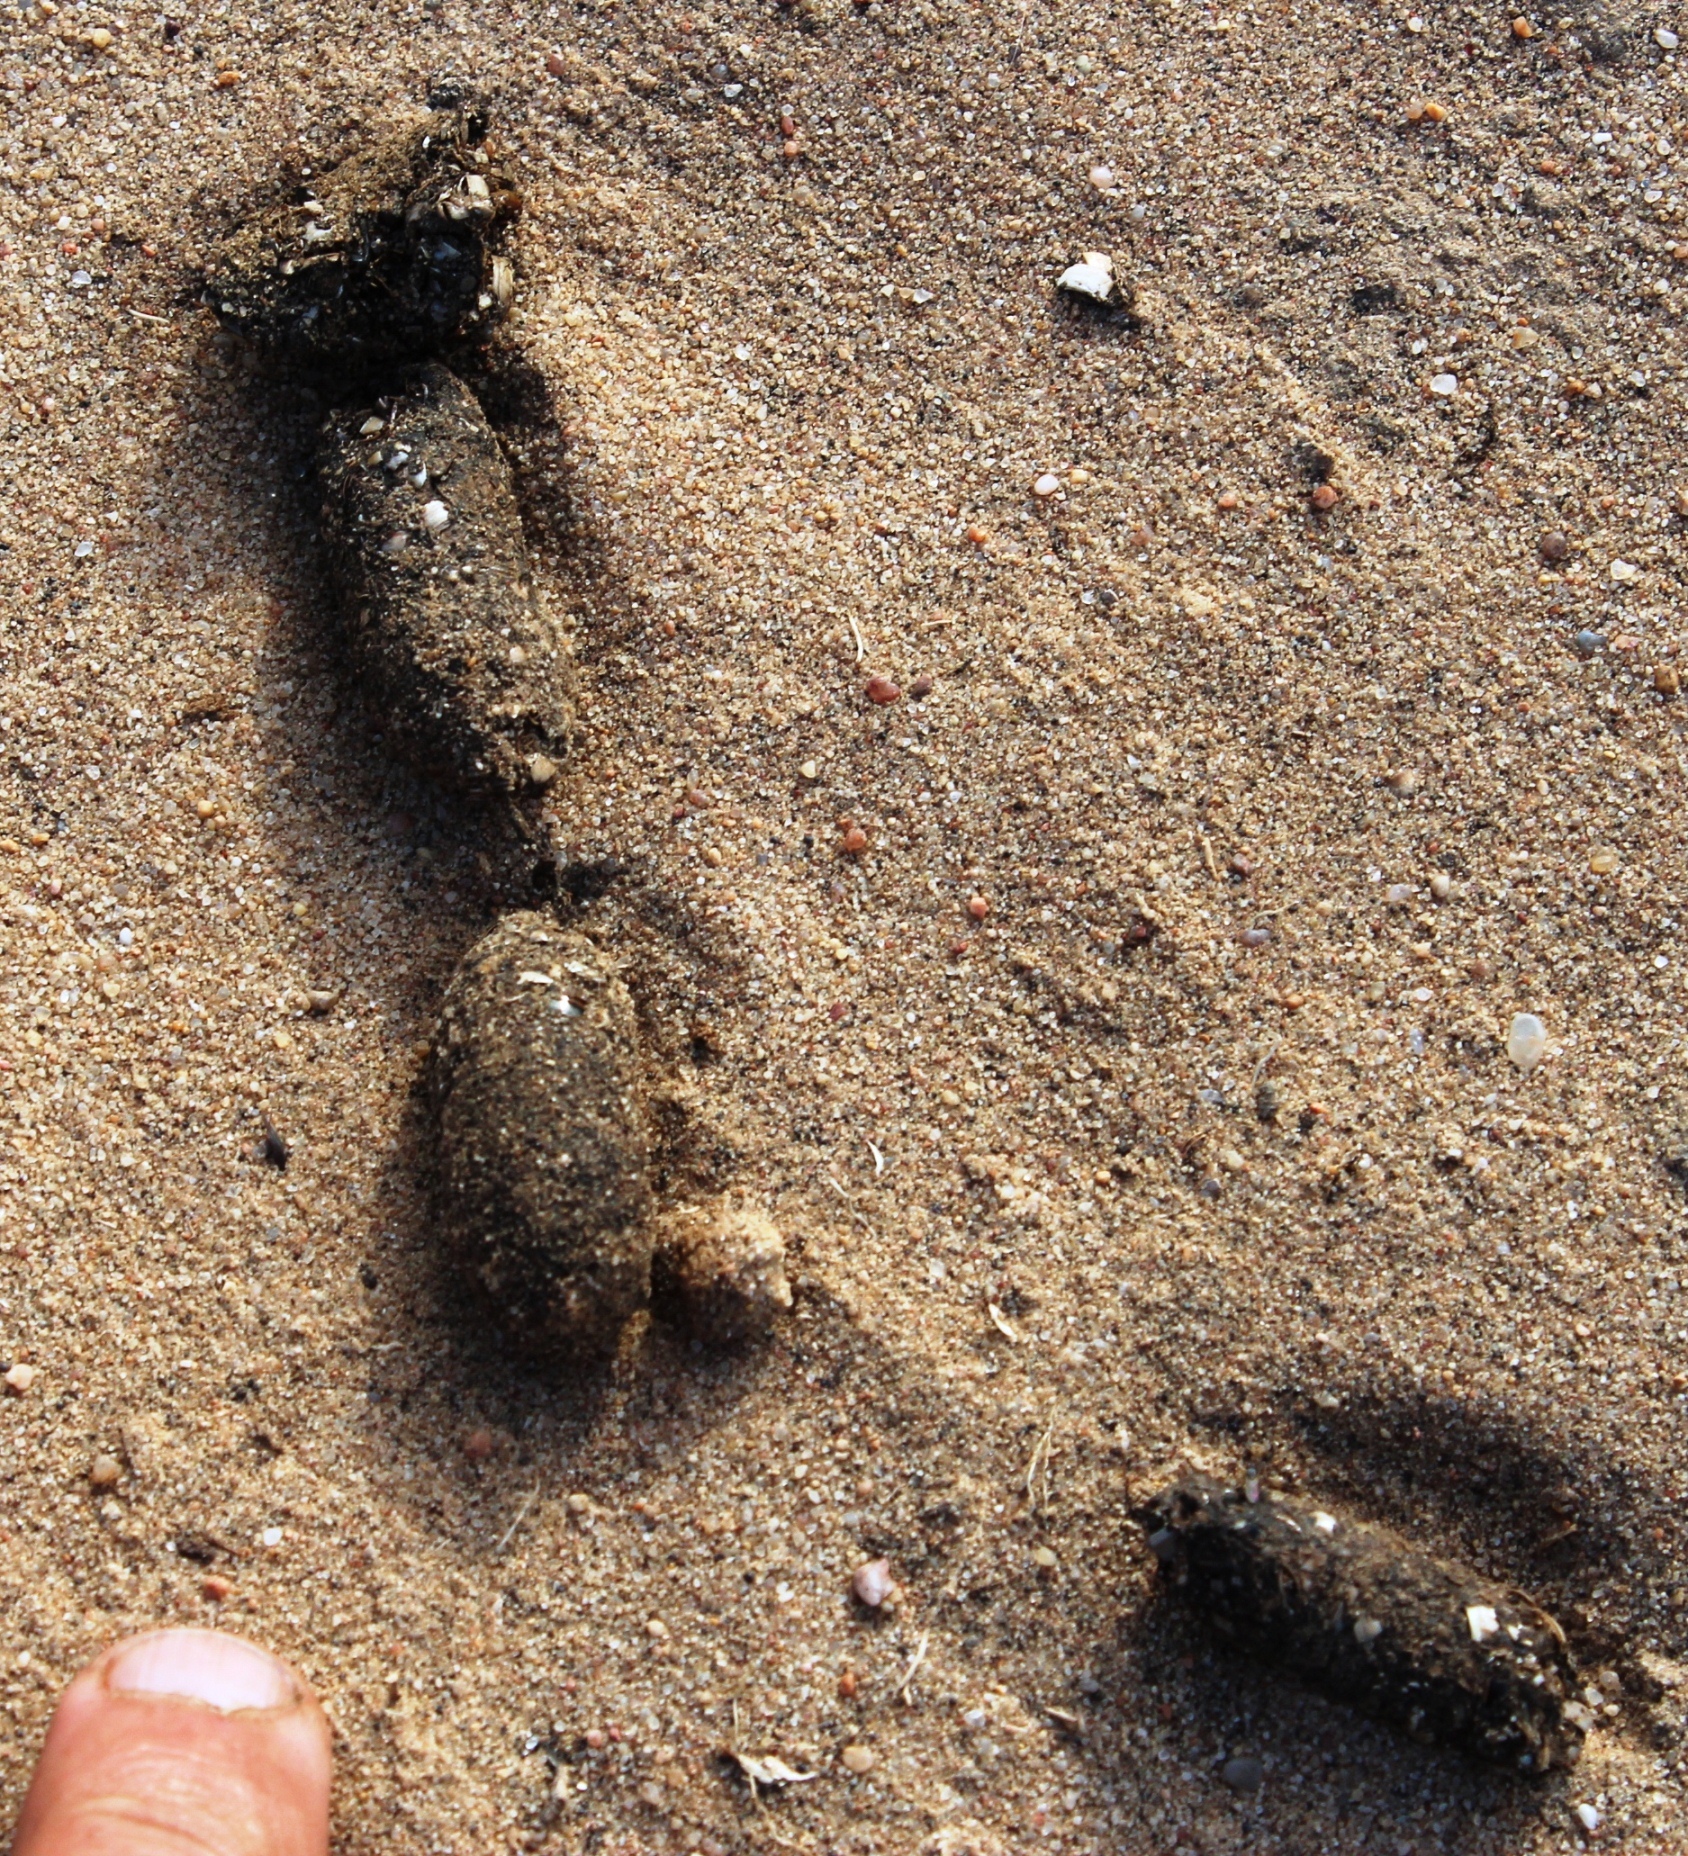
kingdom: Animalia
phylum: Chordata
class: Mammalia
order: Carnivora
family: Herpestidae
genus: Suricata
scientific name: Suricata suricatta
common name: Meerkat
